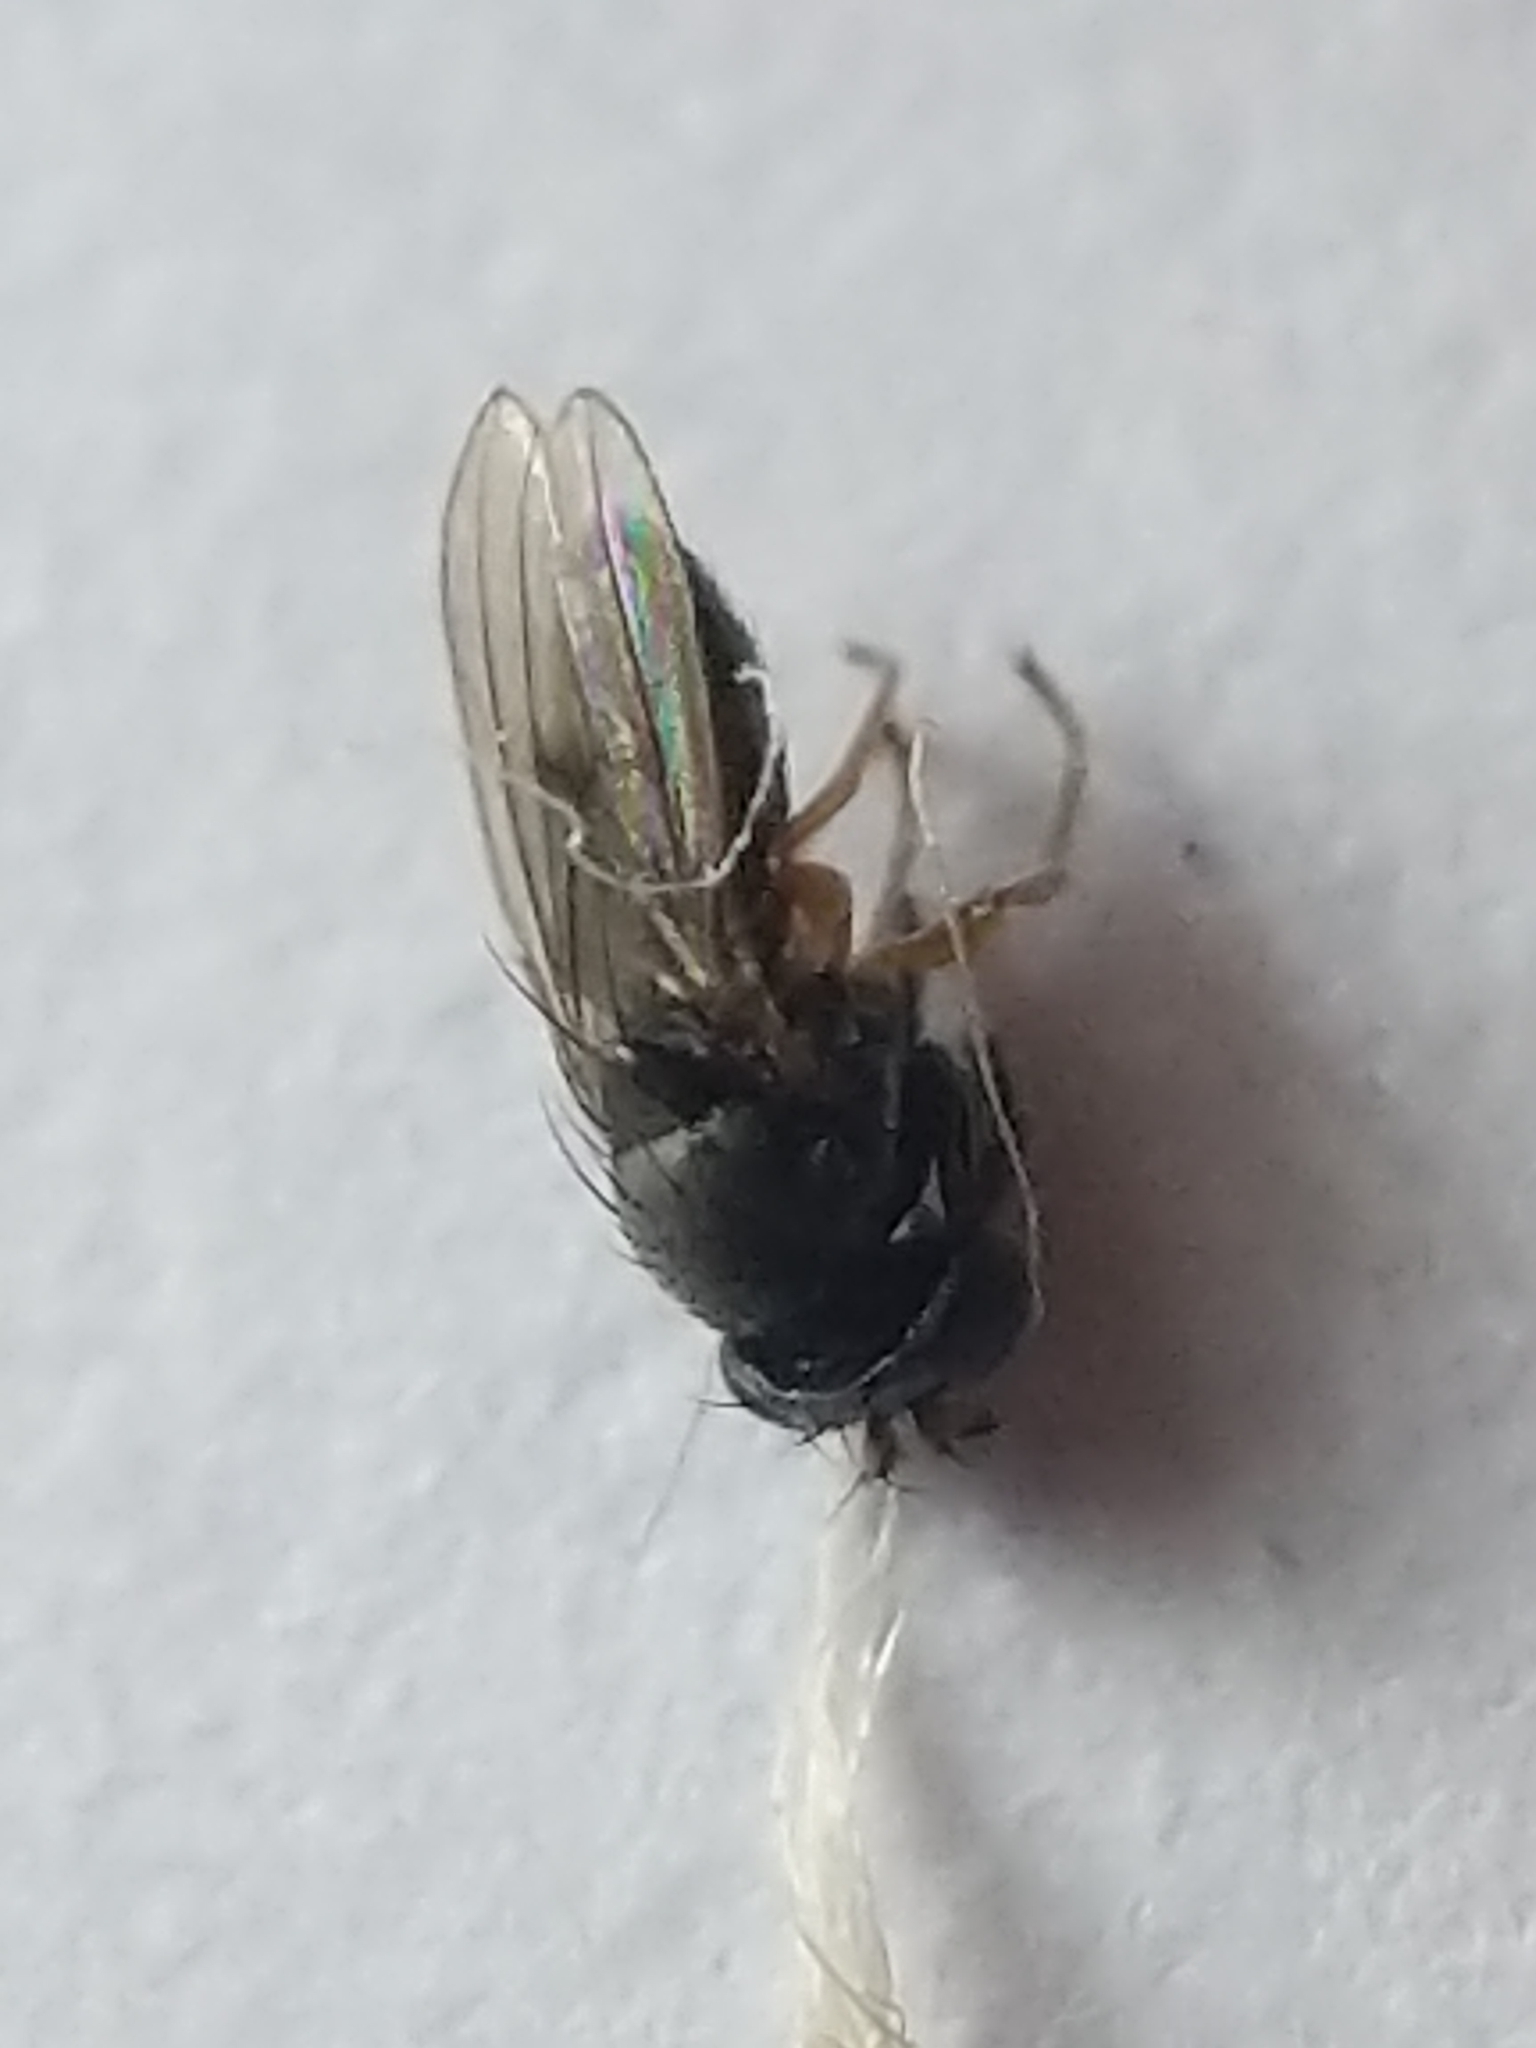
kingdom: Animalia
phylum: Arthropoda
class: Insecta
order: Diptera
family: Ephydridae
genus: Leptopsilopa
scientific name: Leptopsilopa atrimanus
